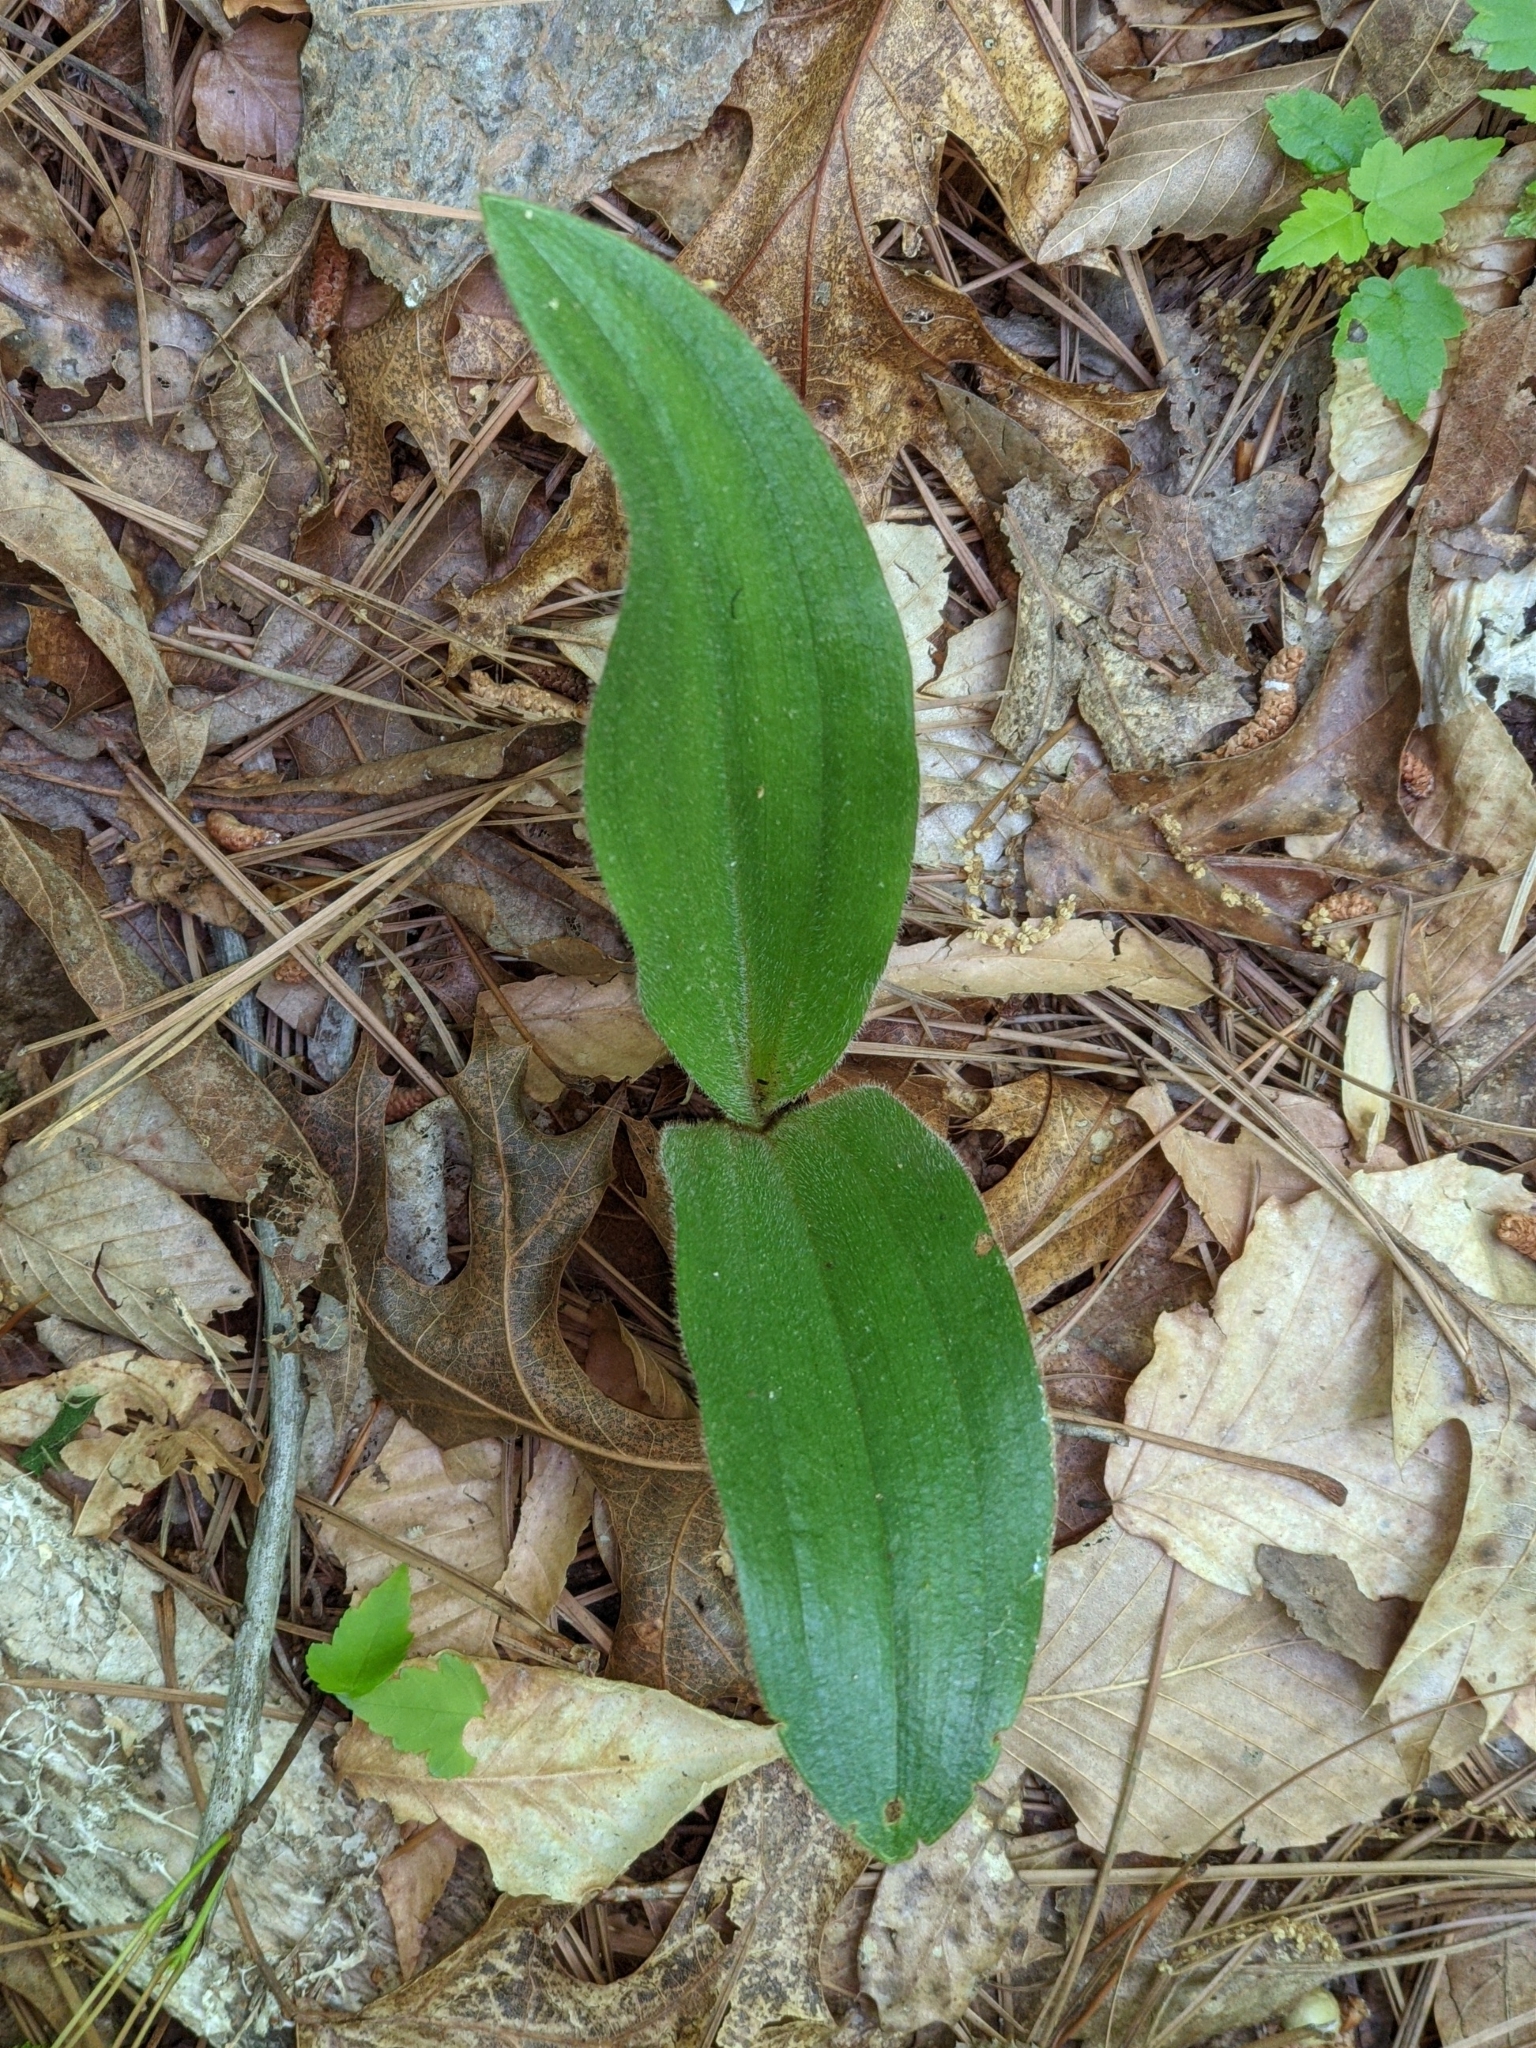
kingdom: Plantae
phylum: Tracheophyta
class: Liliopsida
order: Asparagales
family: Orchidaceae
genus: Cypripedium
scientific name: Cypripedium acaule
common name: Pink lady's-slipper
